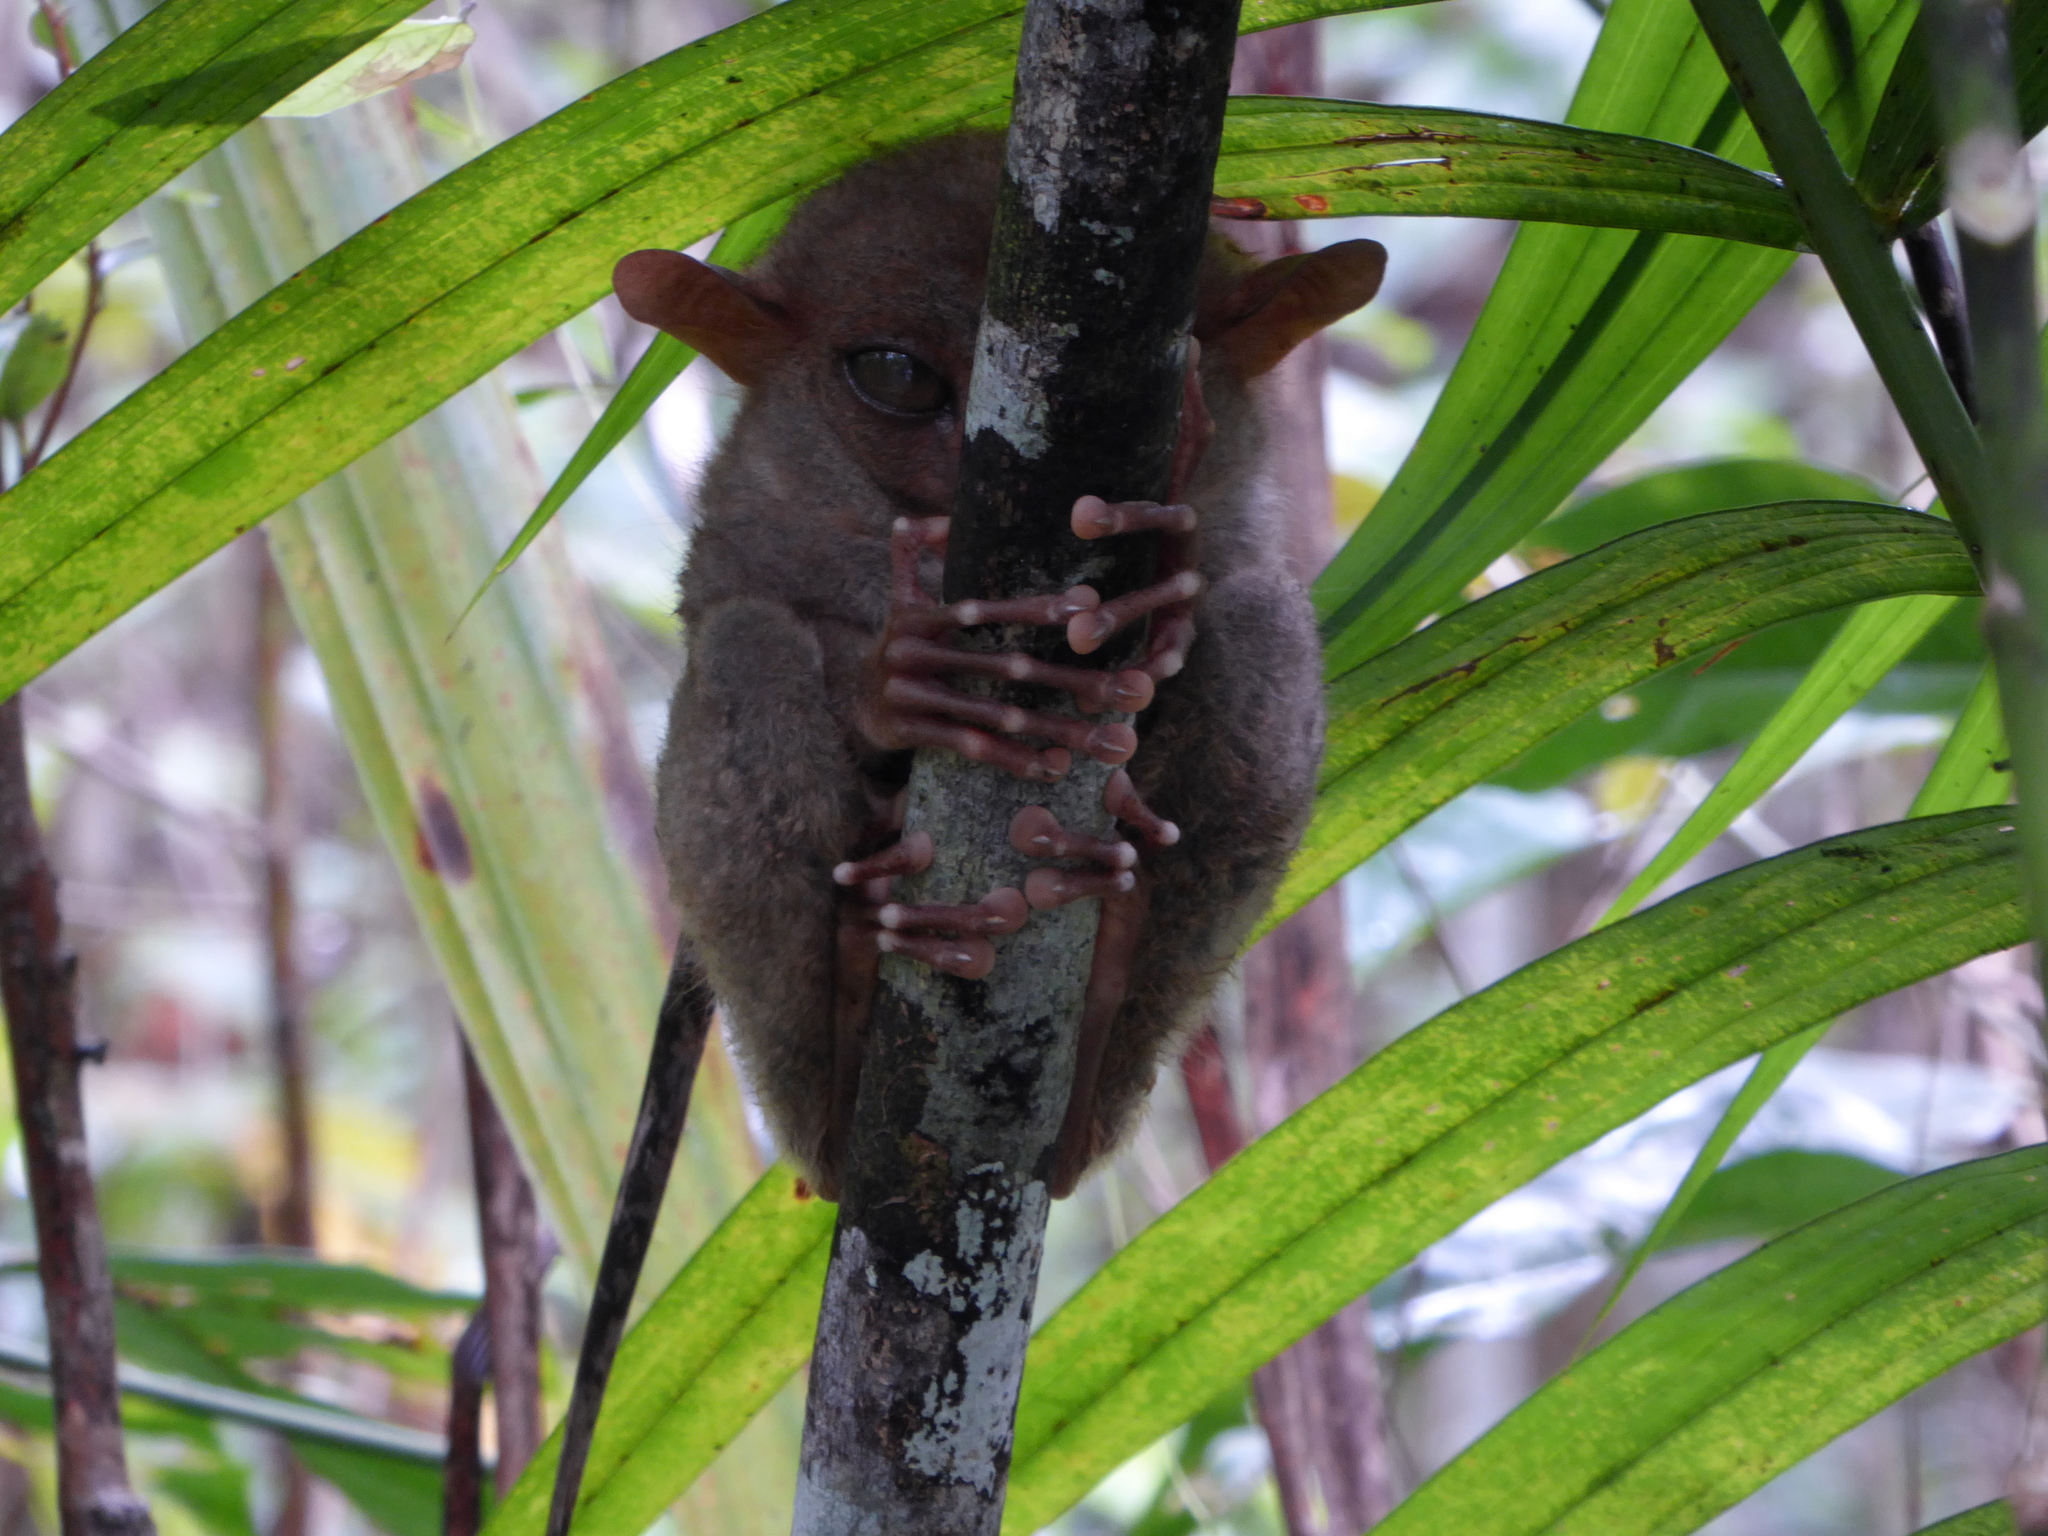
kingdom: Animalia
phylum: Chordata
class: Mammalia
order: Primates
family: Tarsiidae
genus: Carlito
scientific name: Carlito syrichta
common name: Philippine tarsier
